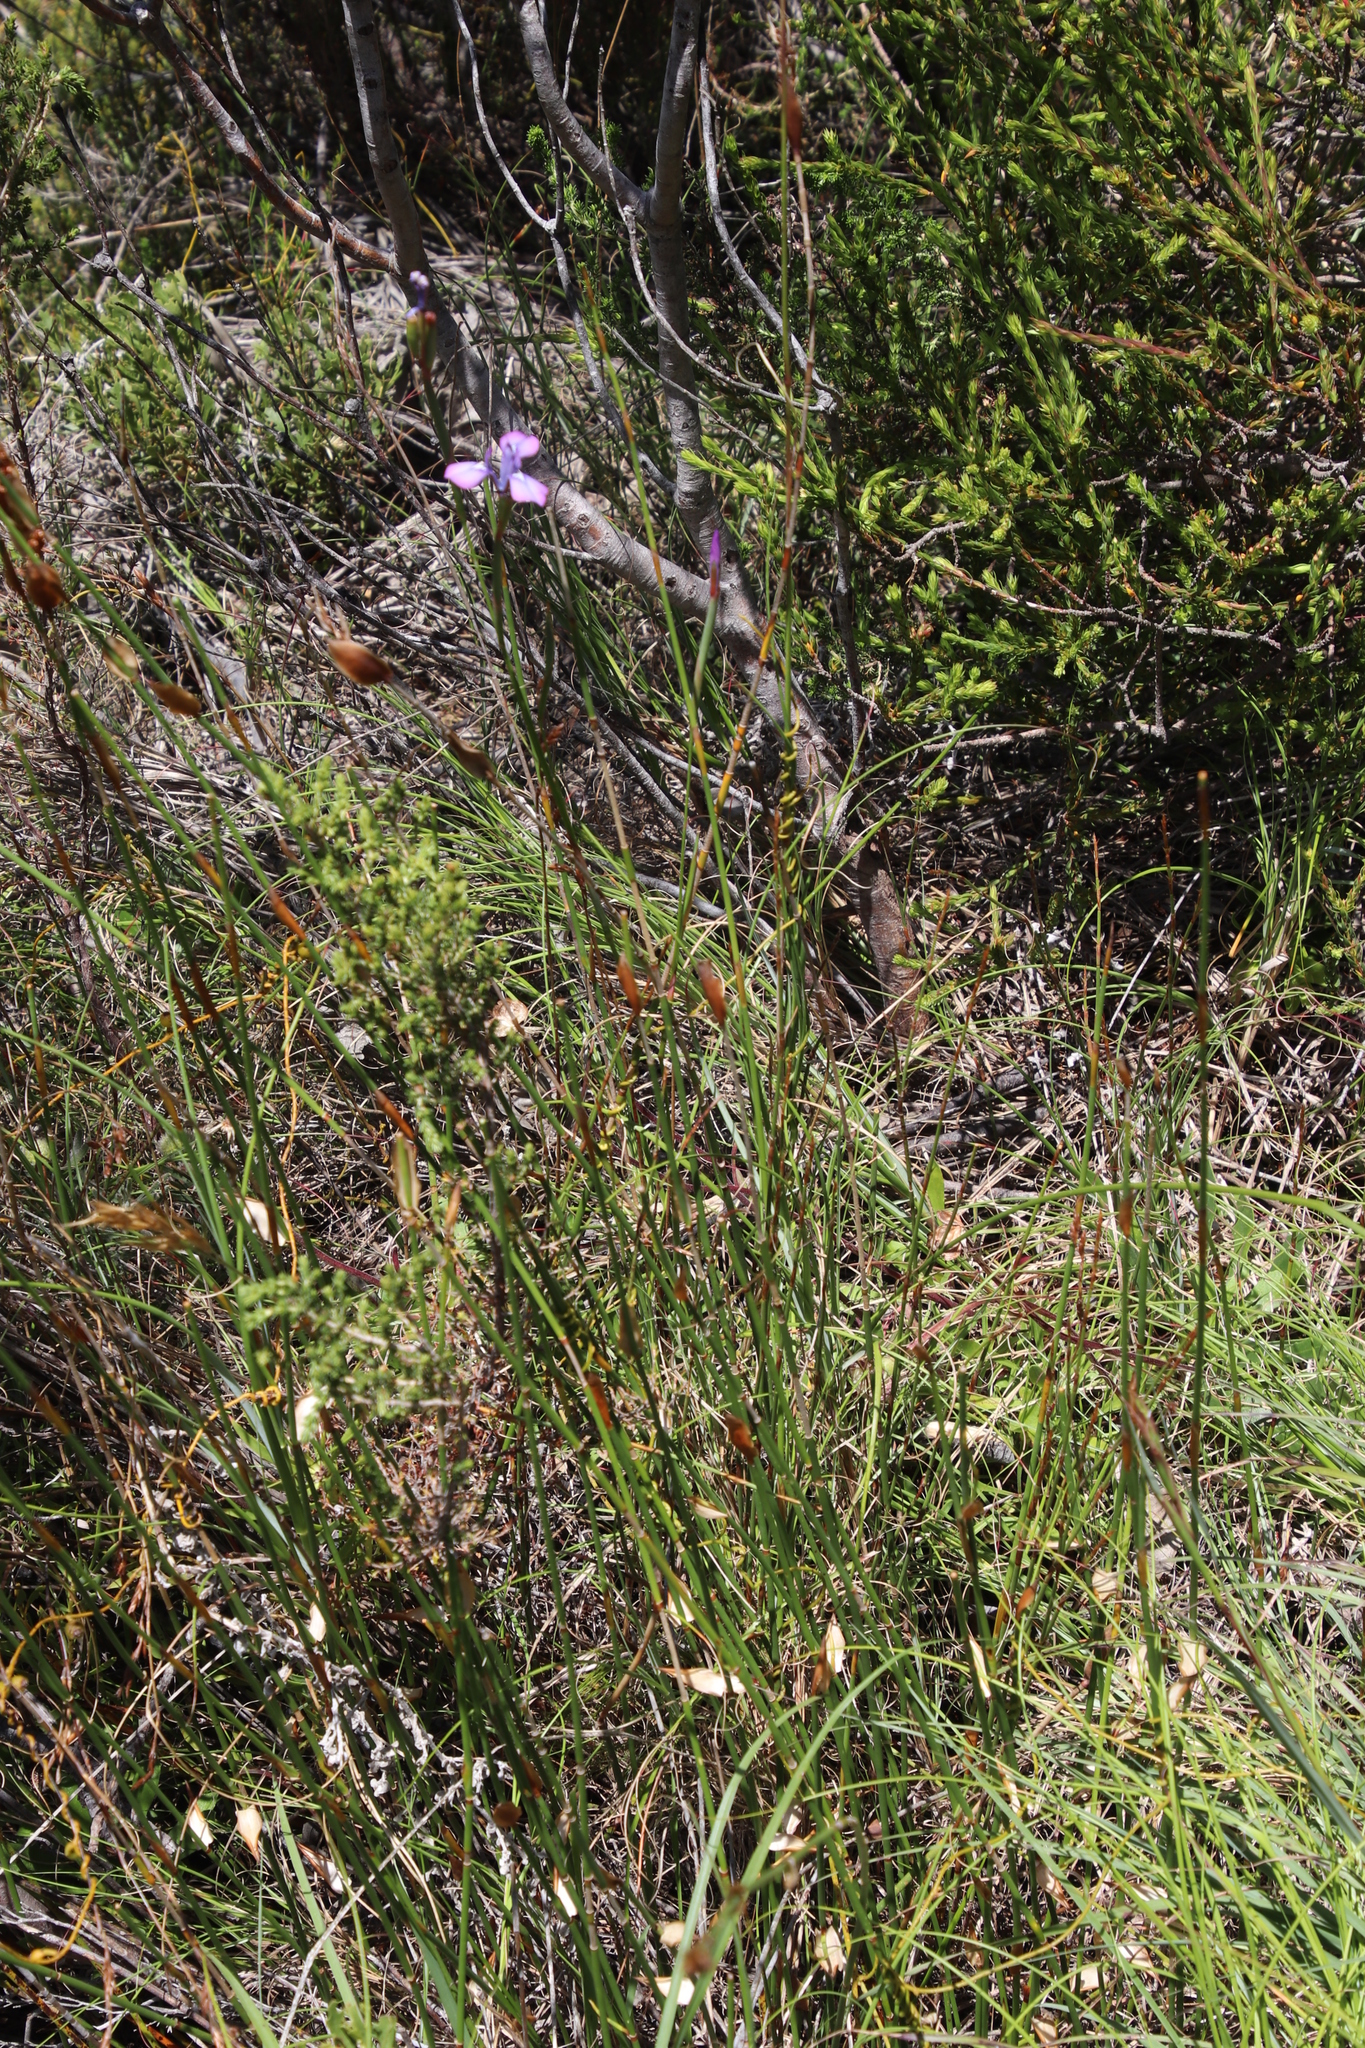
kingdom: Plantae
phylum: Tracheophyta
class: Liliopsida
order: Asparagales
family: Iridaceae
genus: Moraea
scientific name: Moraea tripetala
